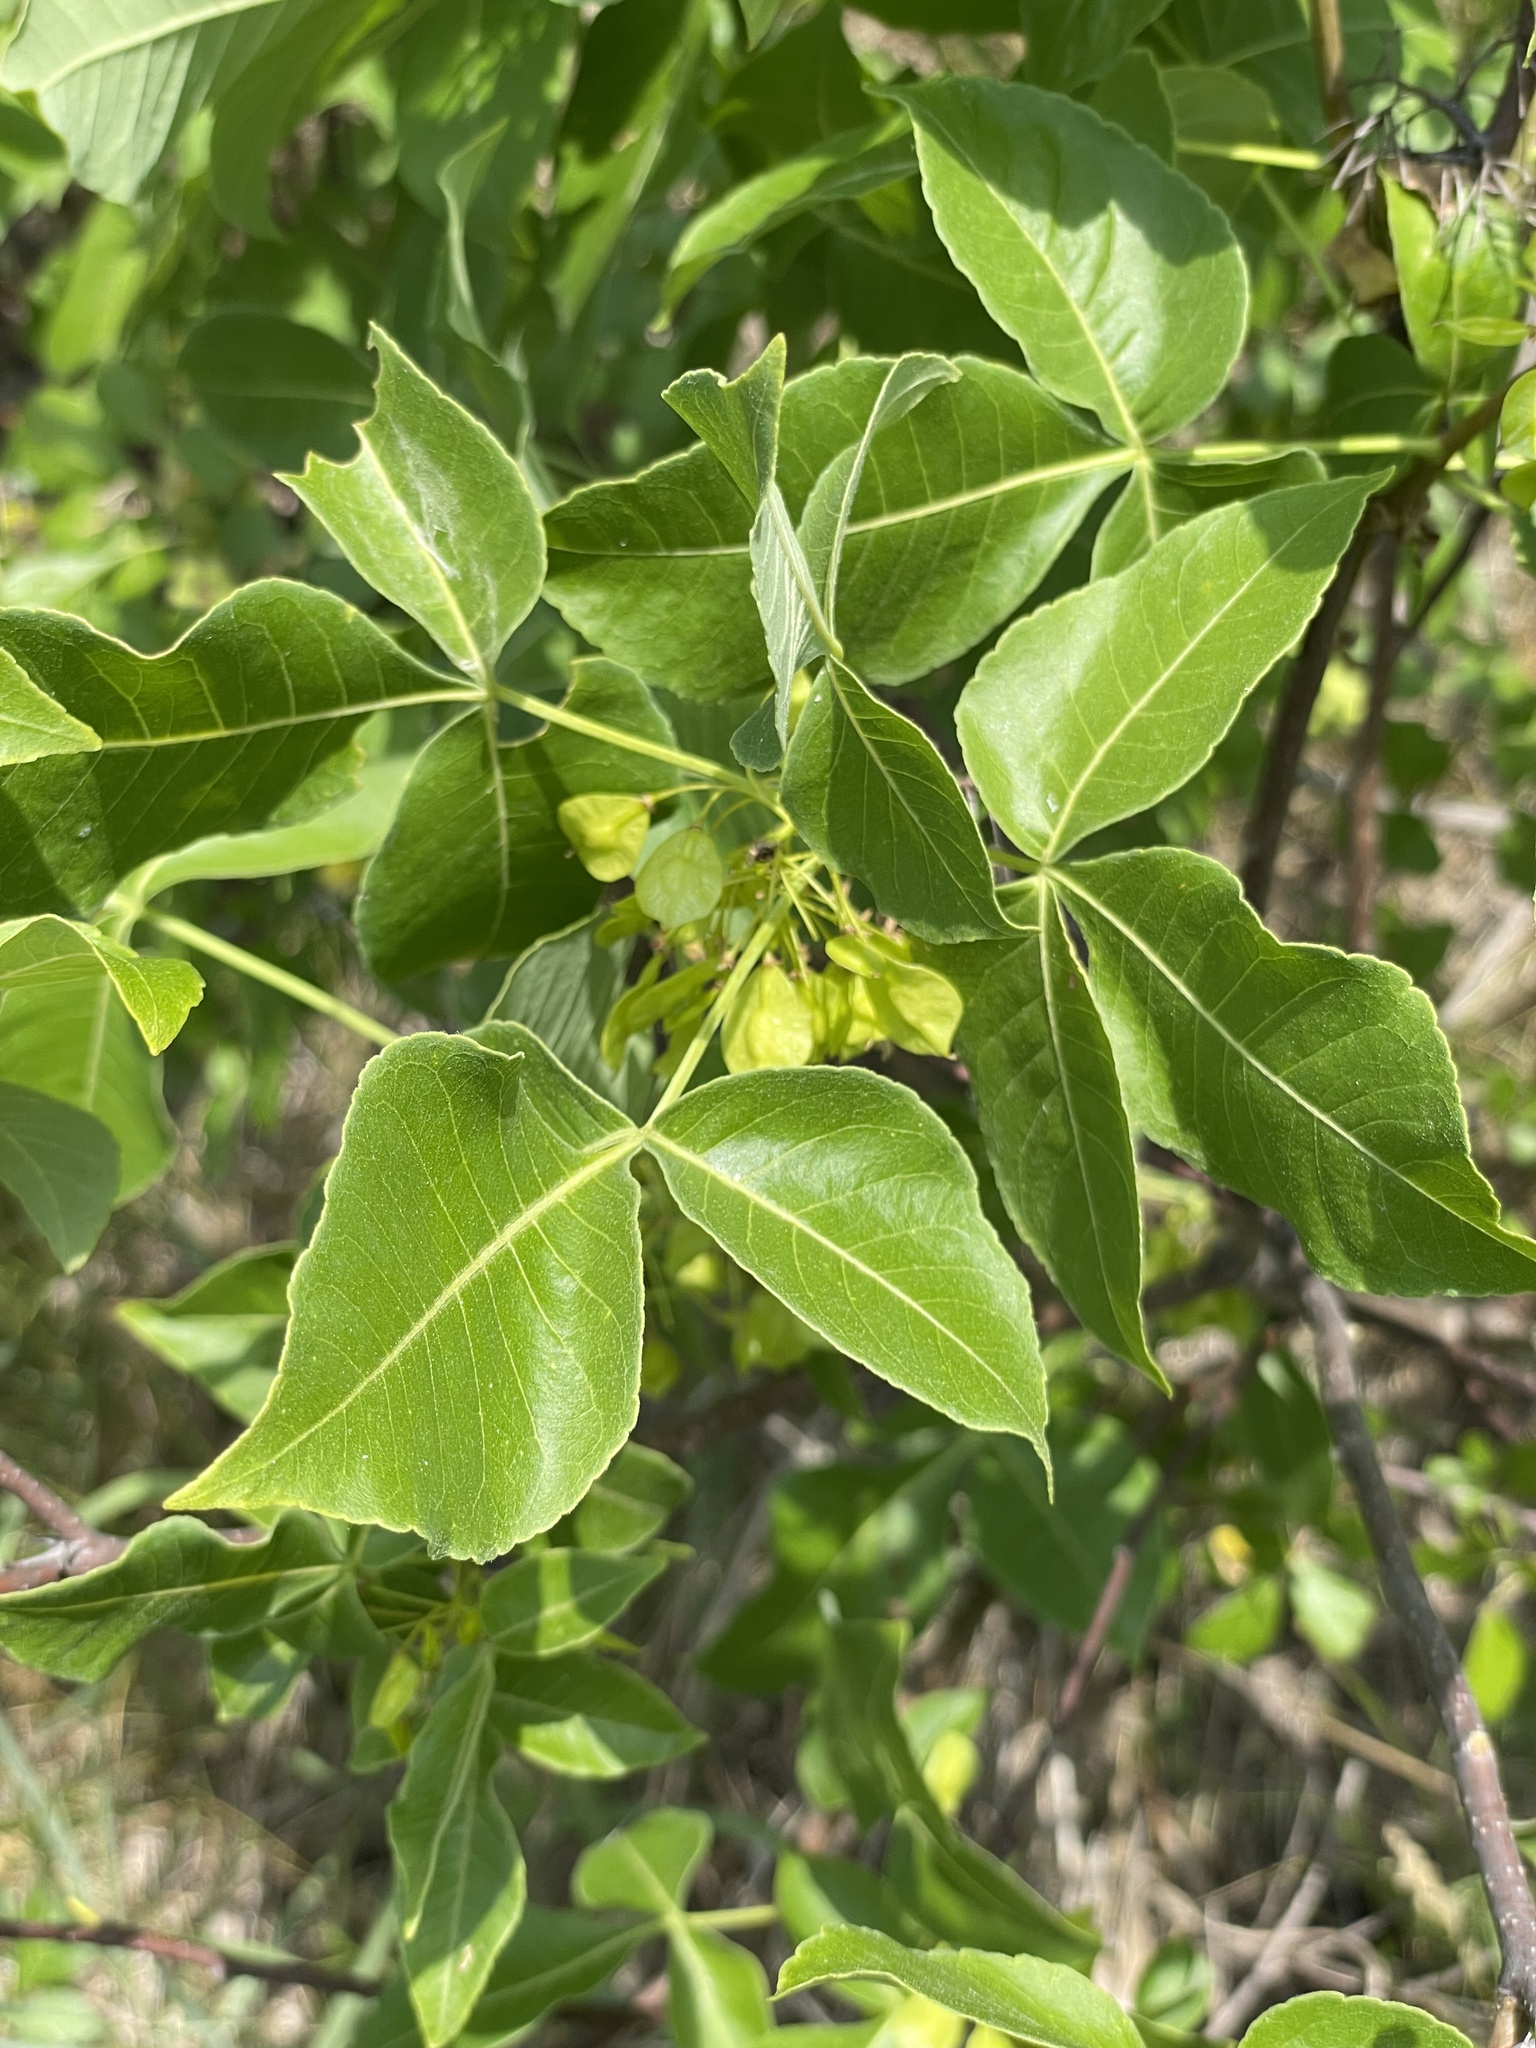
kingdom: Plantae
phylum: Tracheophyta
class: Magnoliopsida
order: Sapindales
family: Rutaceae
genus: Ptelea
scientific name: Ptelea trifoliata
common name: Common hop-tree
